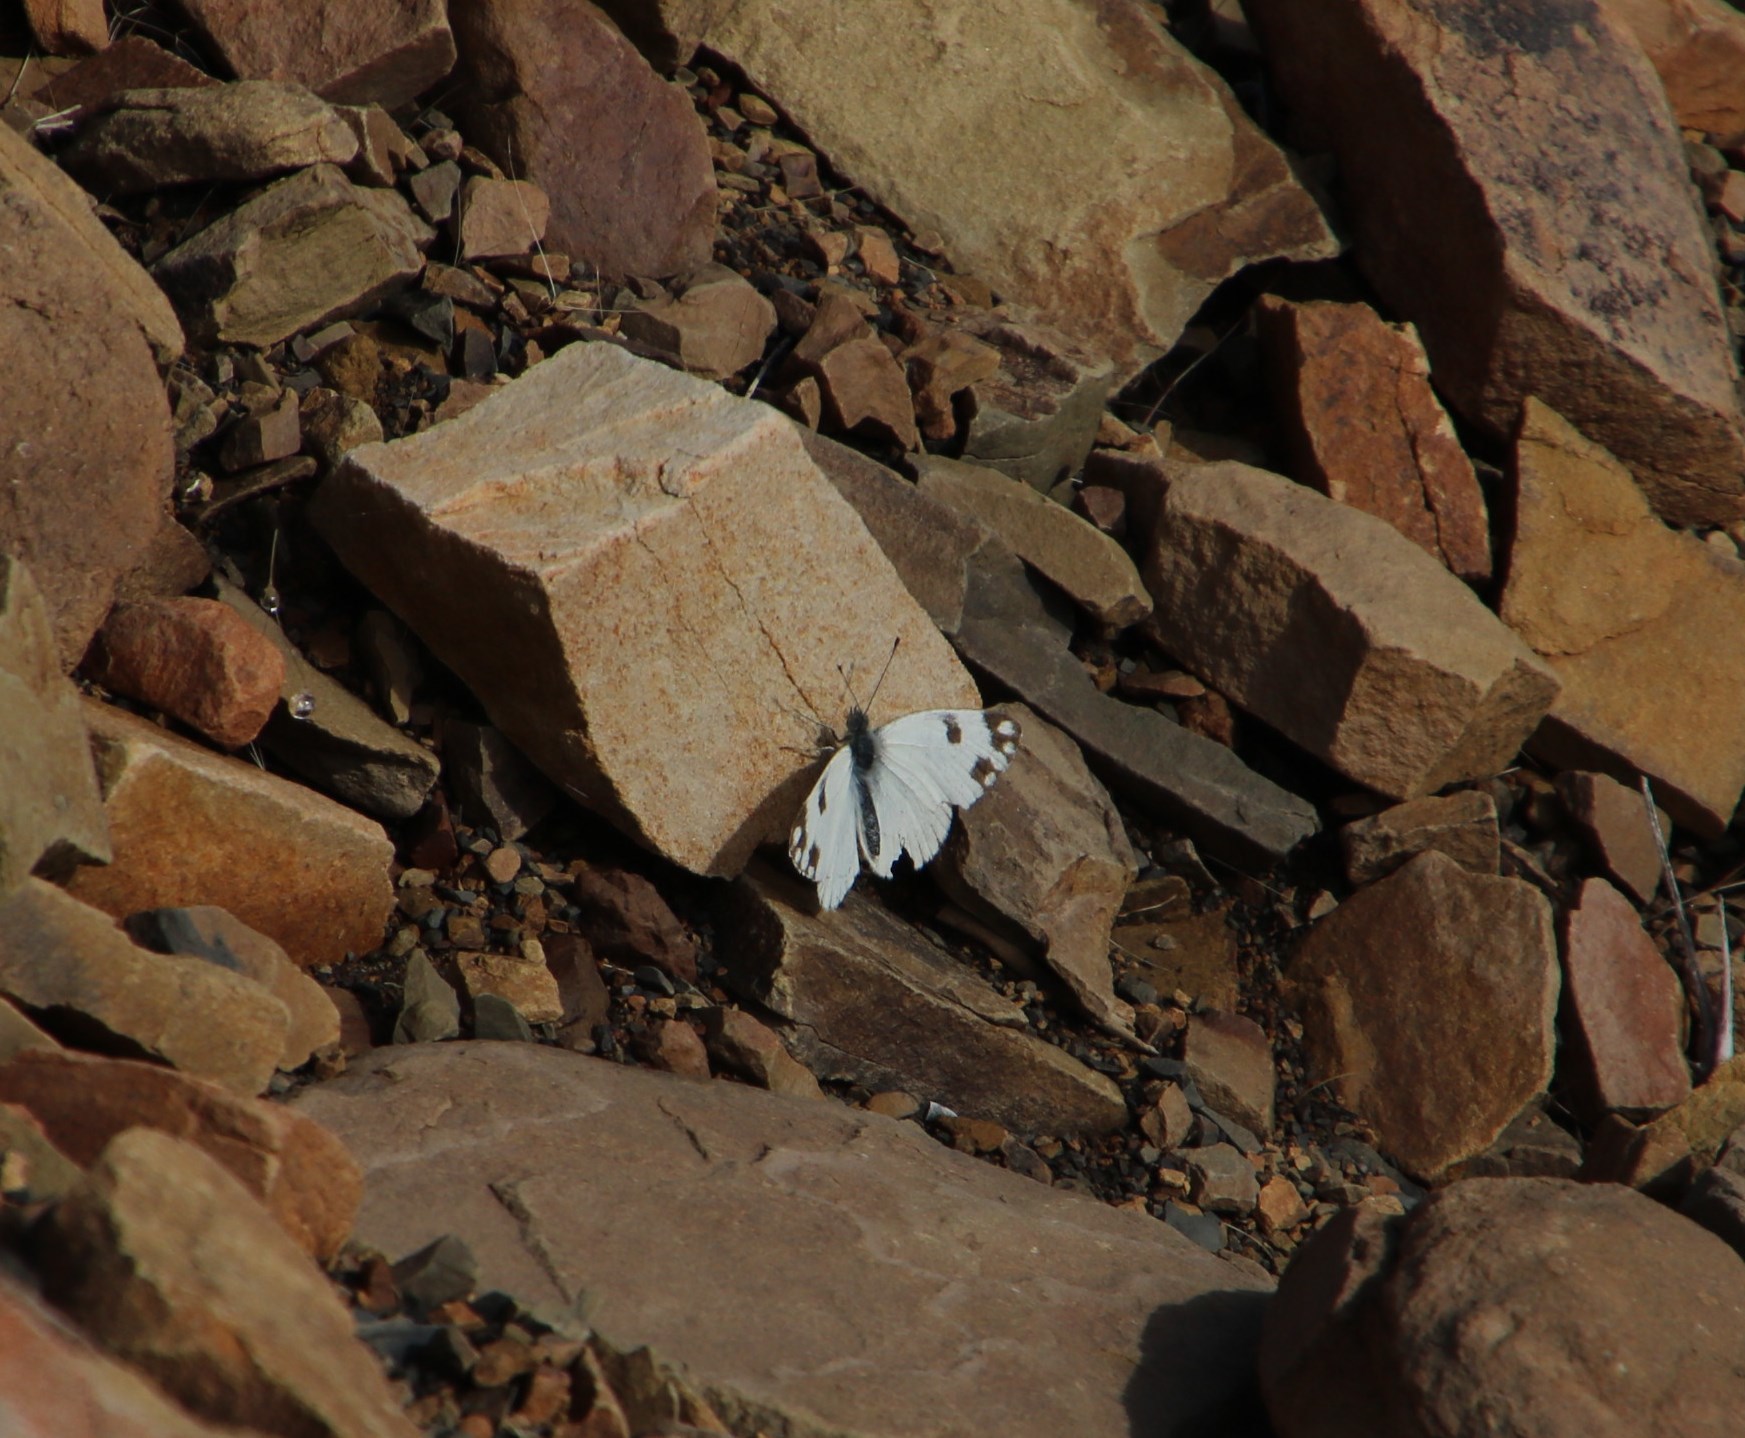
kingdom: Animalia
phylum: Arthropoda
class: Insecta
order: Lepidoptera
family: Pieridae
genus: Pontia
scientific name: Pontia helice
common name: Meadow white
